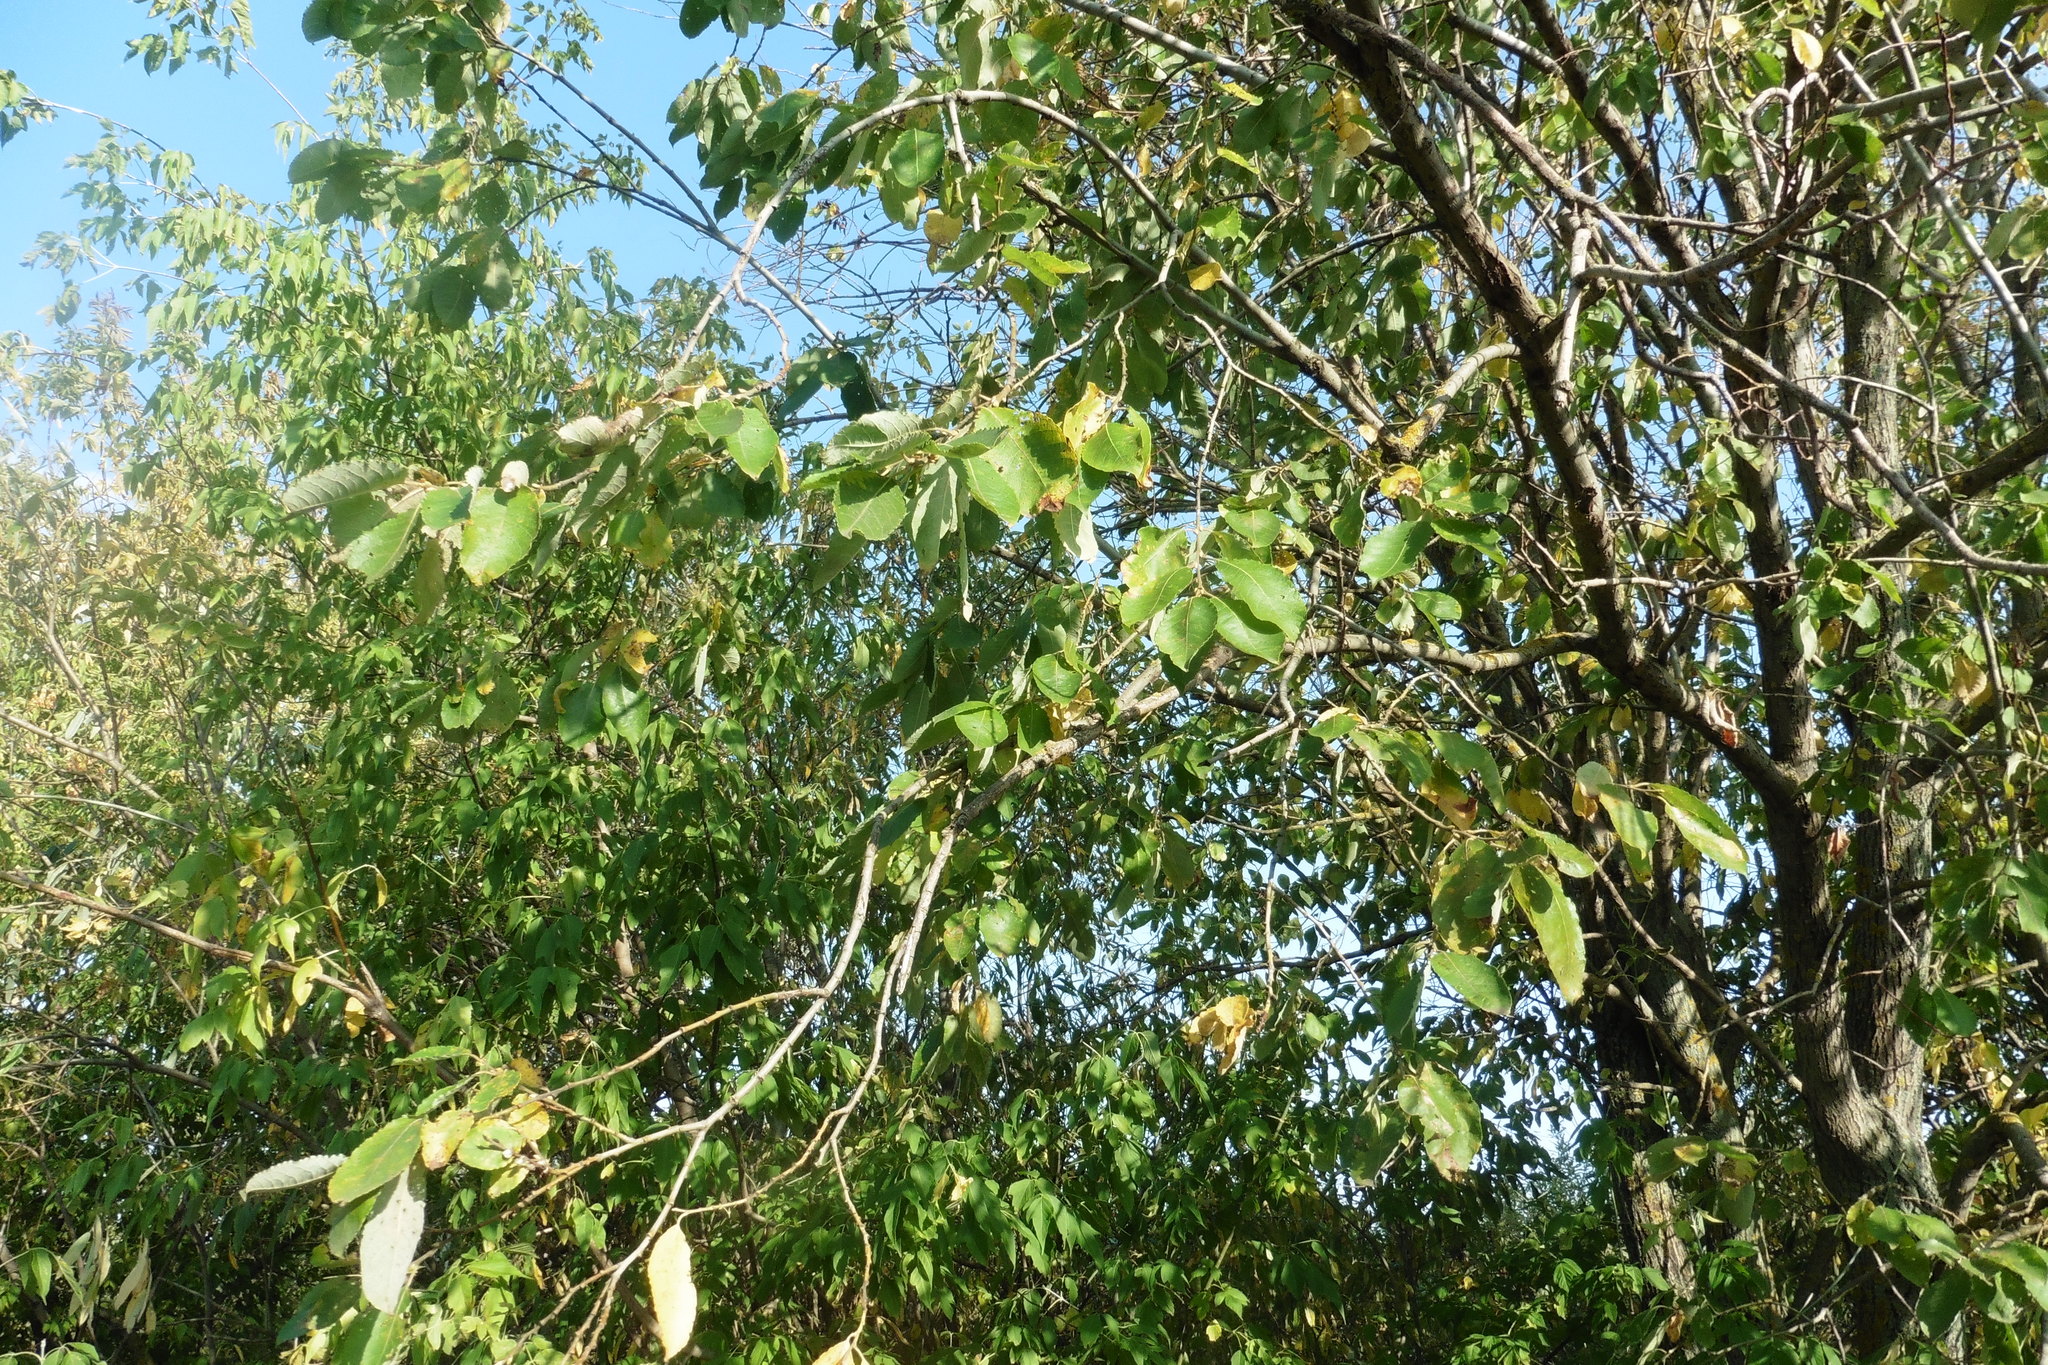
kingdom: Plantae
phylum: Tracheophyta
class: Magnoliopsida
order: Malpighiales
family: Salicaceae
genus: Salix
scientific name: Salix caprea
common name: Goat willow
